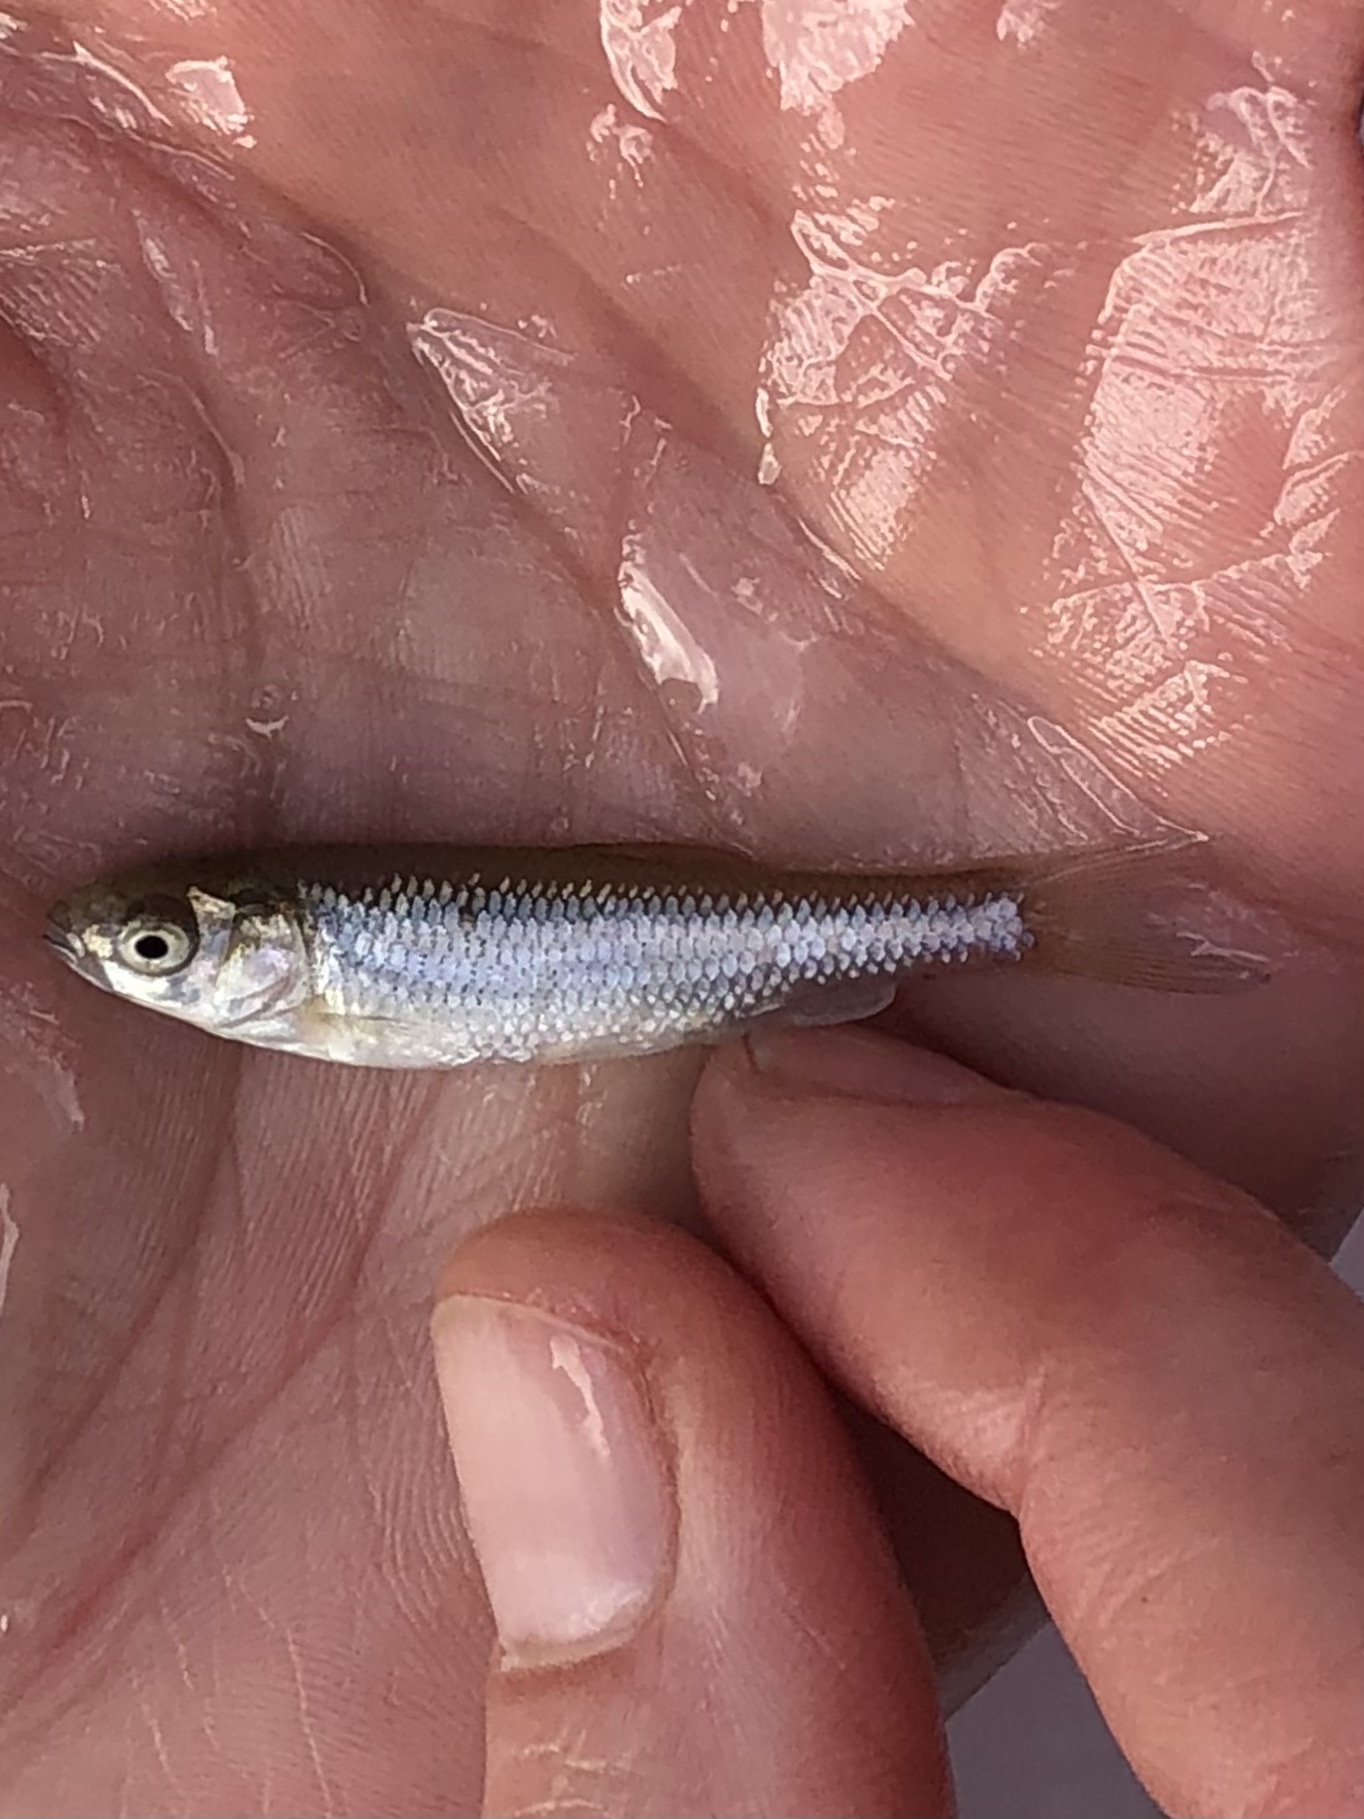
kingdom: Animalia
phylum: Chordata
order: Cypriniformes
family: Cyprinidae
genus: Squalius
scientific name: Squalius laietanus
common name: Catalan chub
